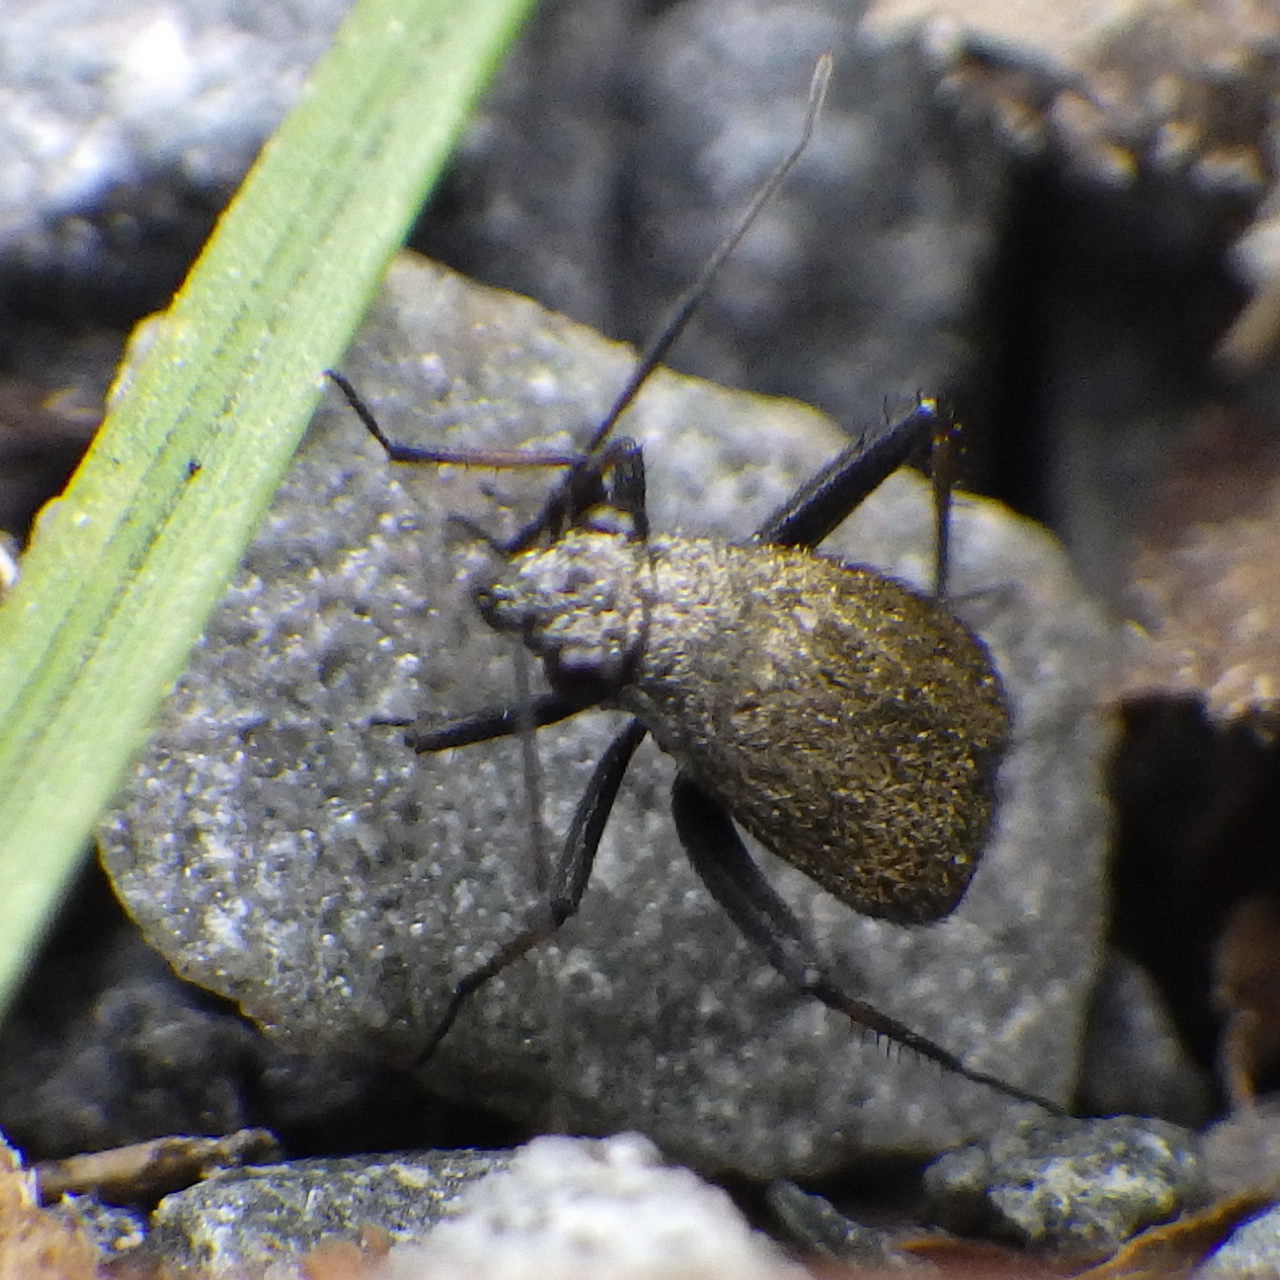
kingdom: Animalia
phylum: Arthropoda
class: Insecta
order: Hemiptera
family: Miridae
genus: Orthocephalus
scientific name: Orthocephalus saltator
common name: Plant bug
